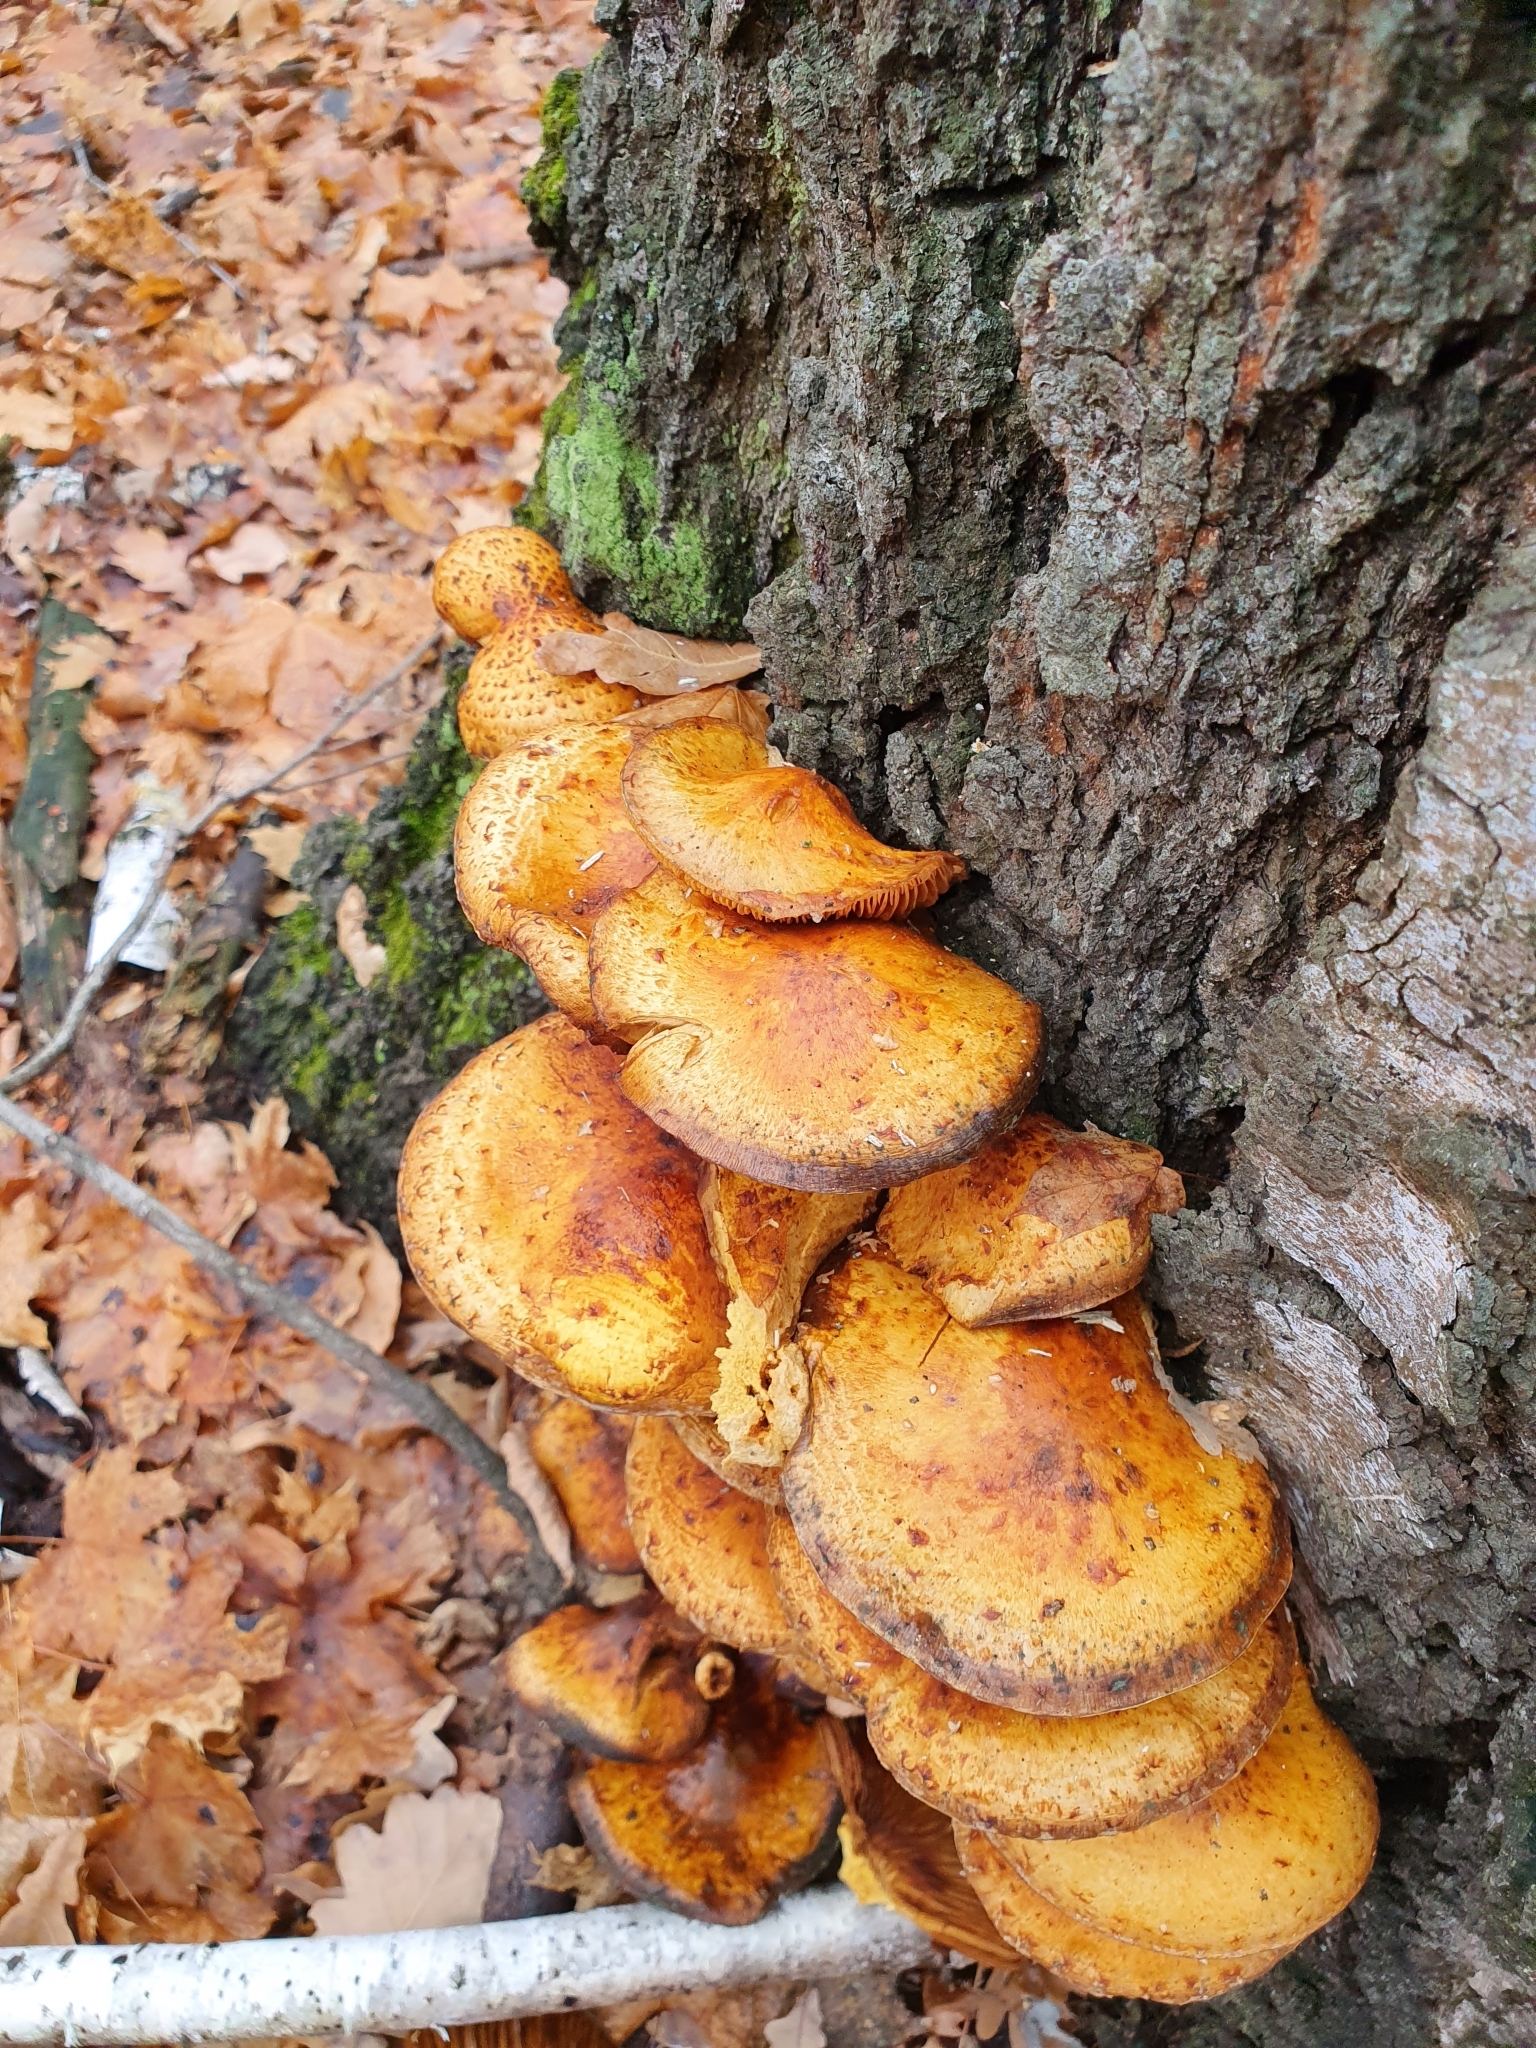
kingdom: Fungi
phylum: Basidiomycota
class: Agaricomycetes
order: Agaricales
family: Strophariaceae
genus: Pholiota
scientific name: Pholiota aurivella
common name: Golden scalycap
